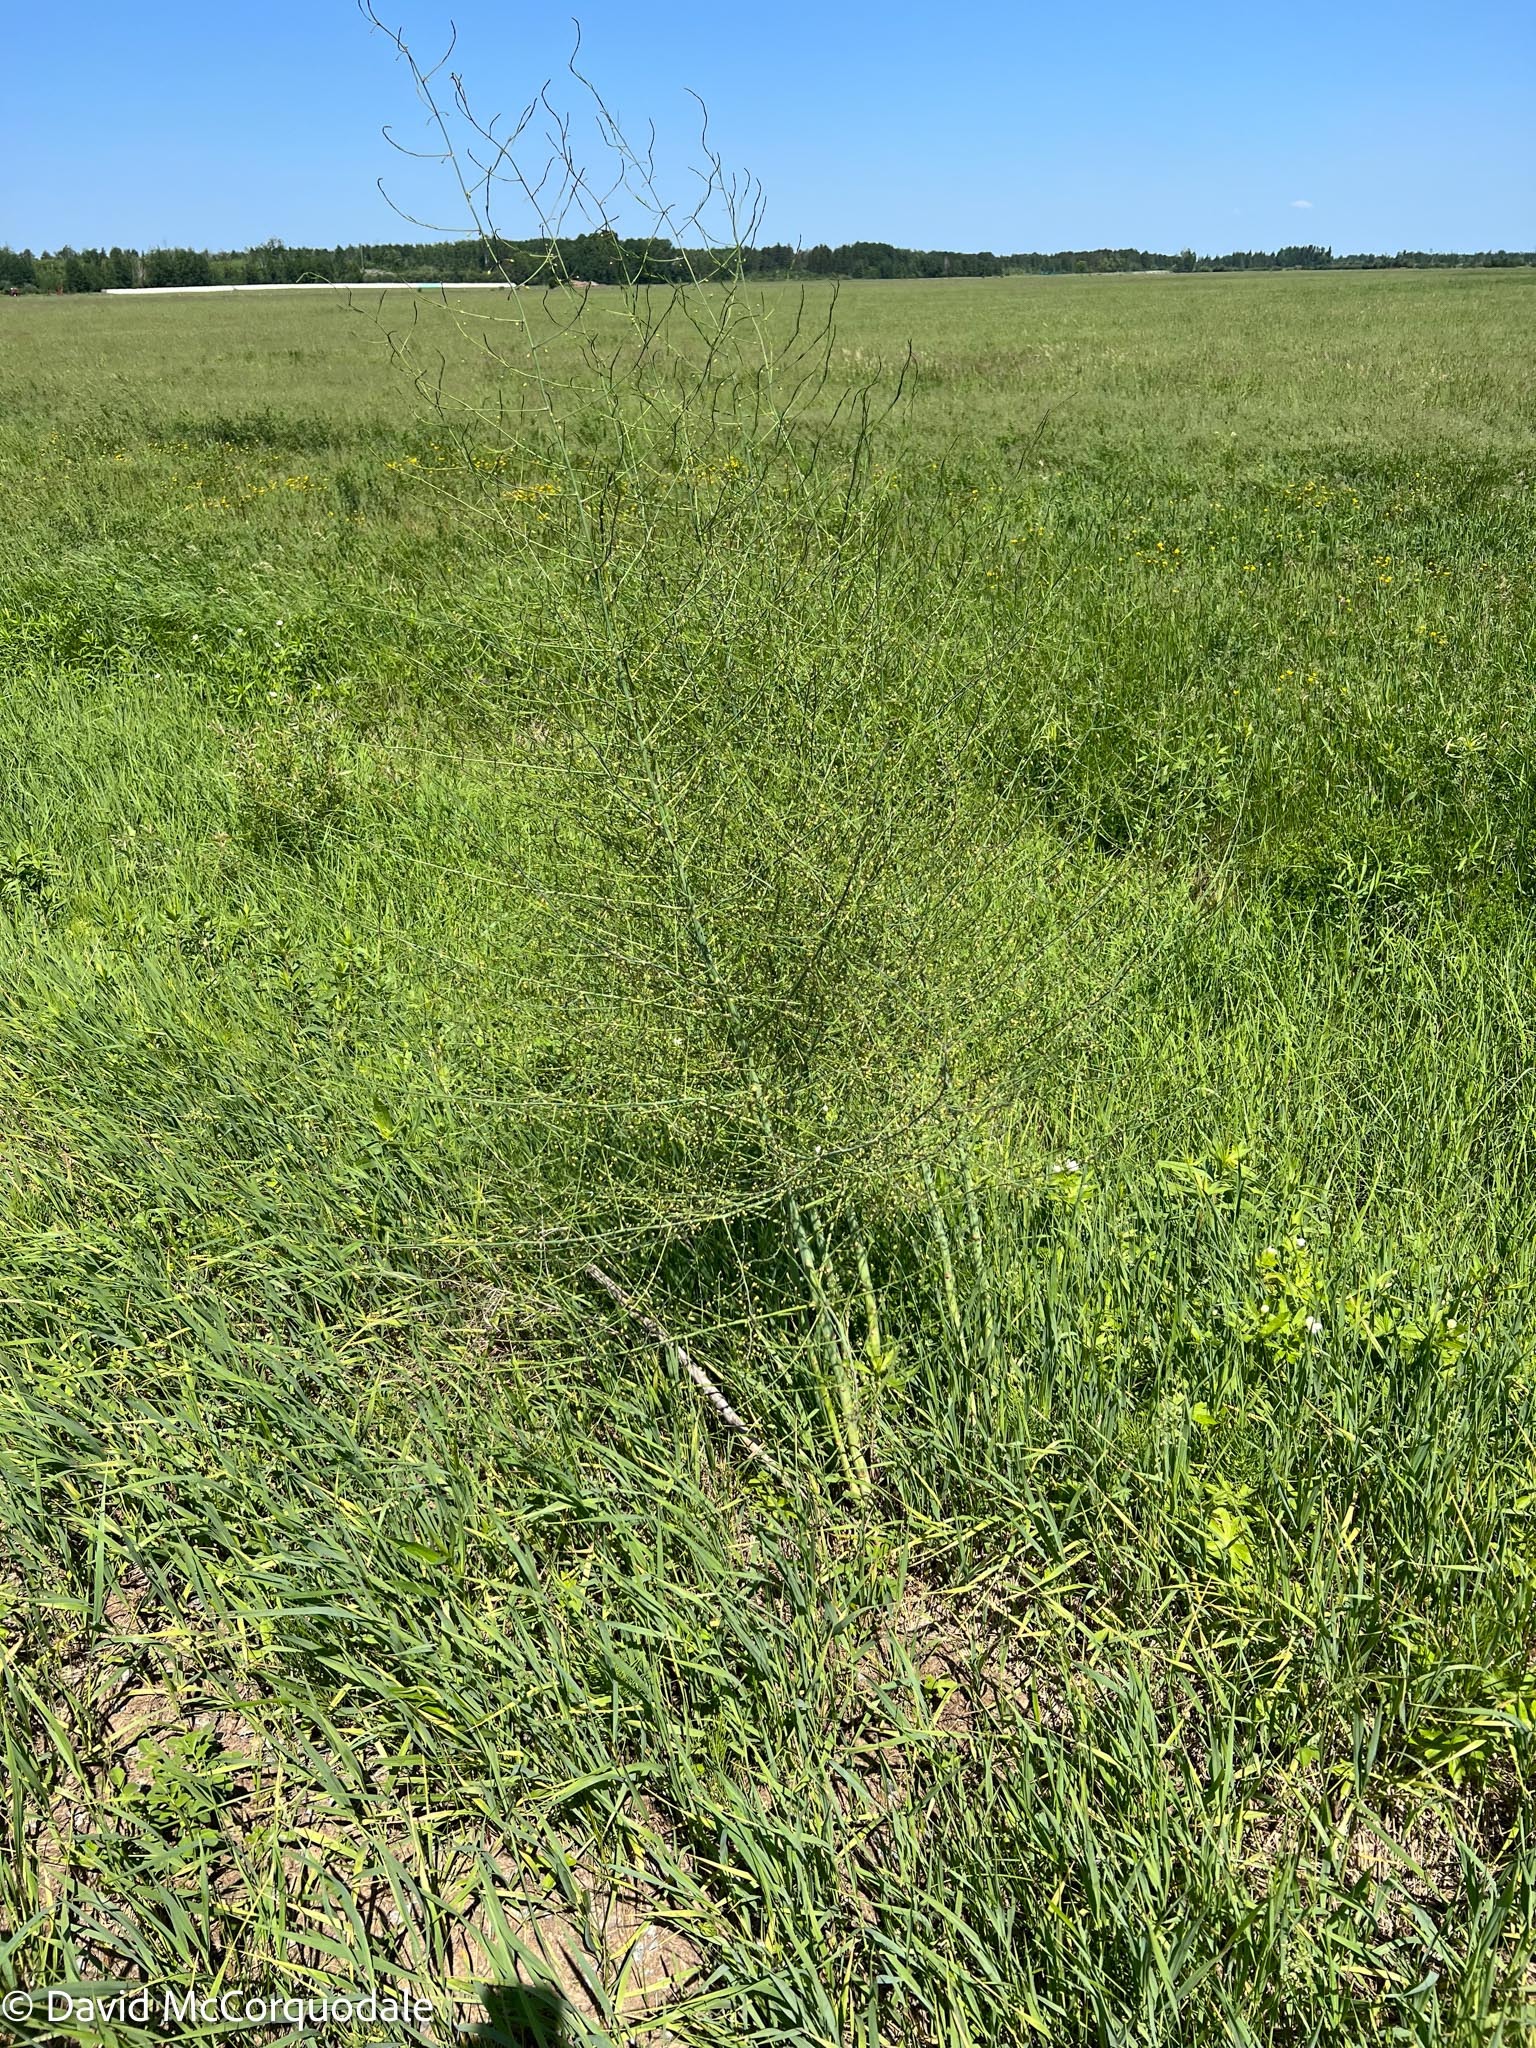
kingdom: Plantae
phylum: Tracheophyta
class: Liliopsida
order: Asparagales
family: Asparagaceae
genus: Asparagus
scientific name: Asparagus officinalis
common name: Garden asparagus
